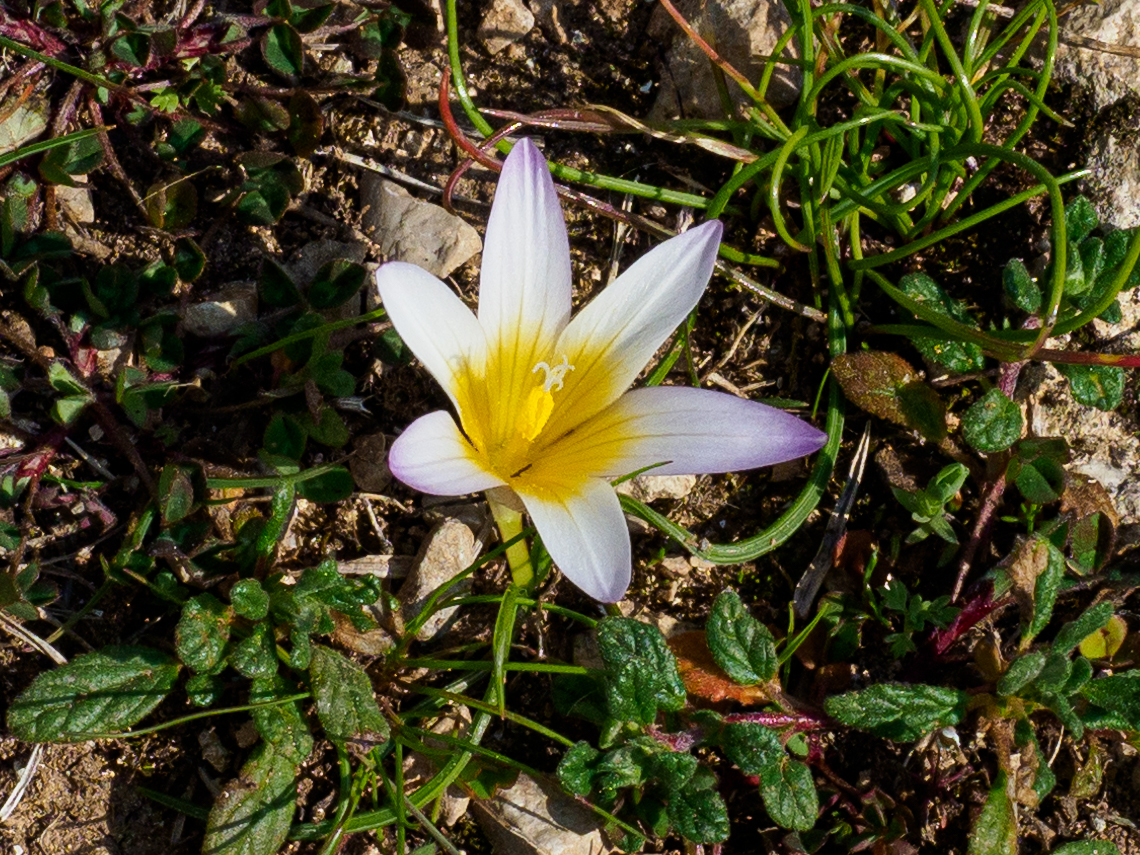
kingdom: Plantae
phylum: Tracheophyta
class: Liliopsida
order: Asparagales
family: Iridaceae
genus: Romulea
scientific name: Romulea bulbocodium
